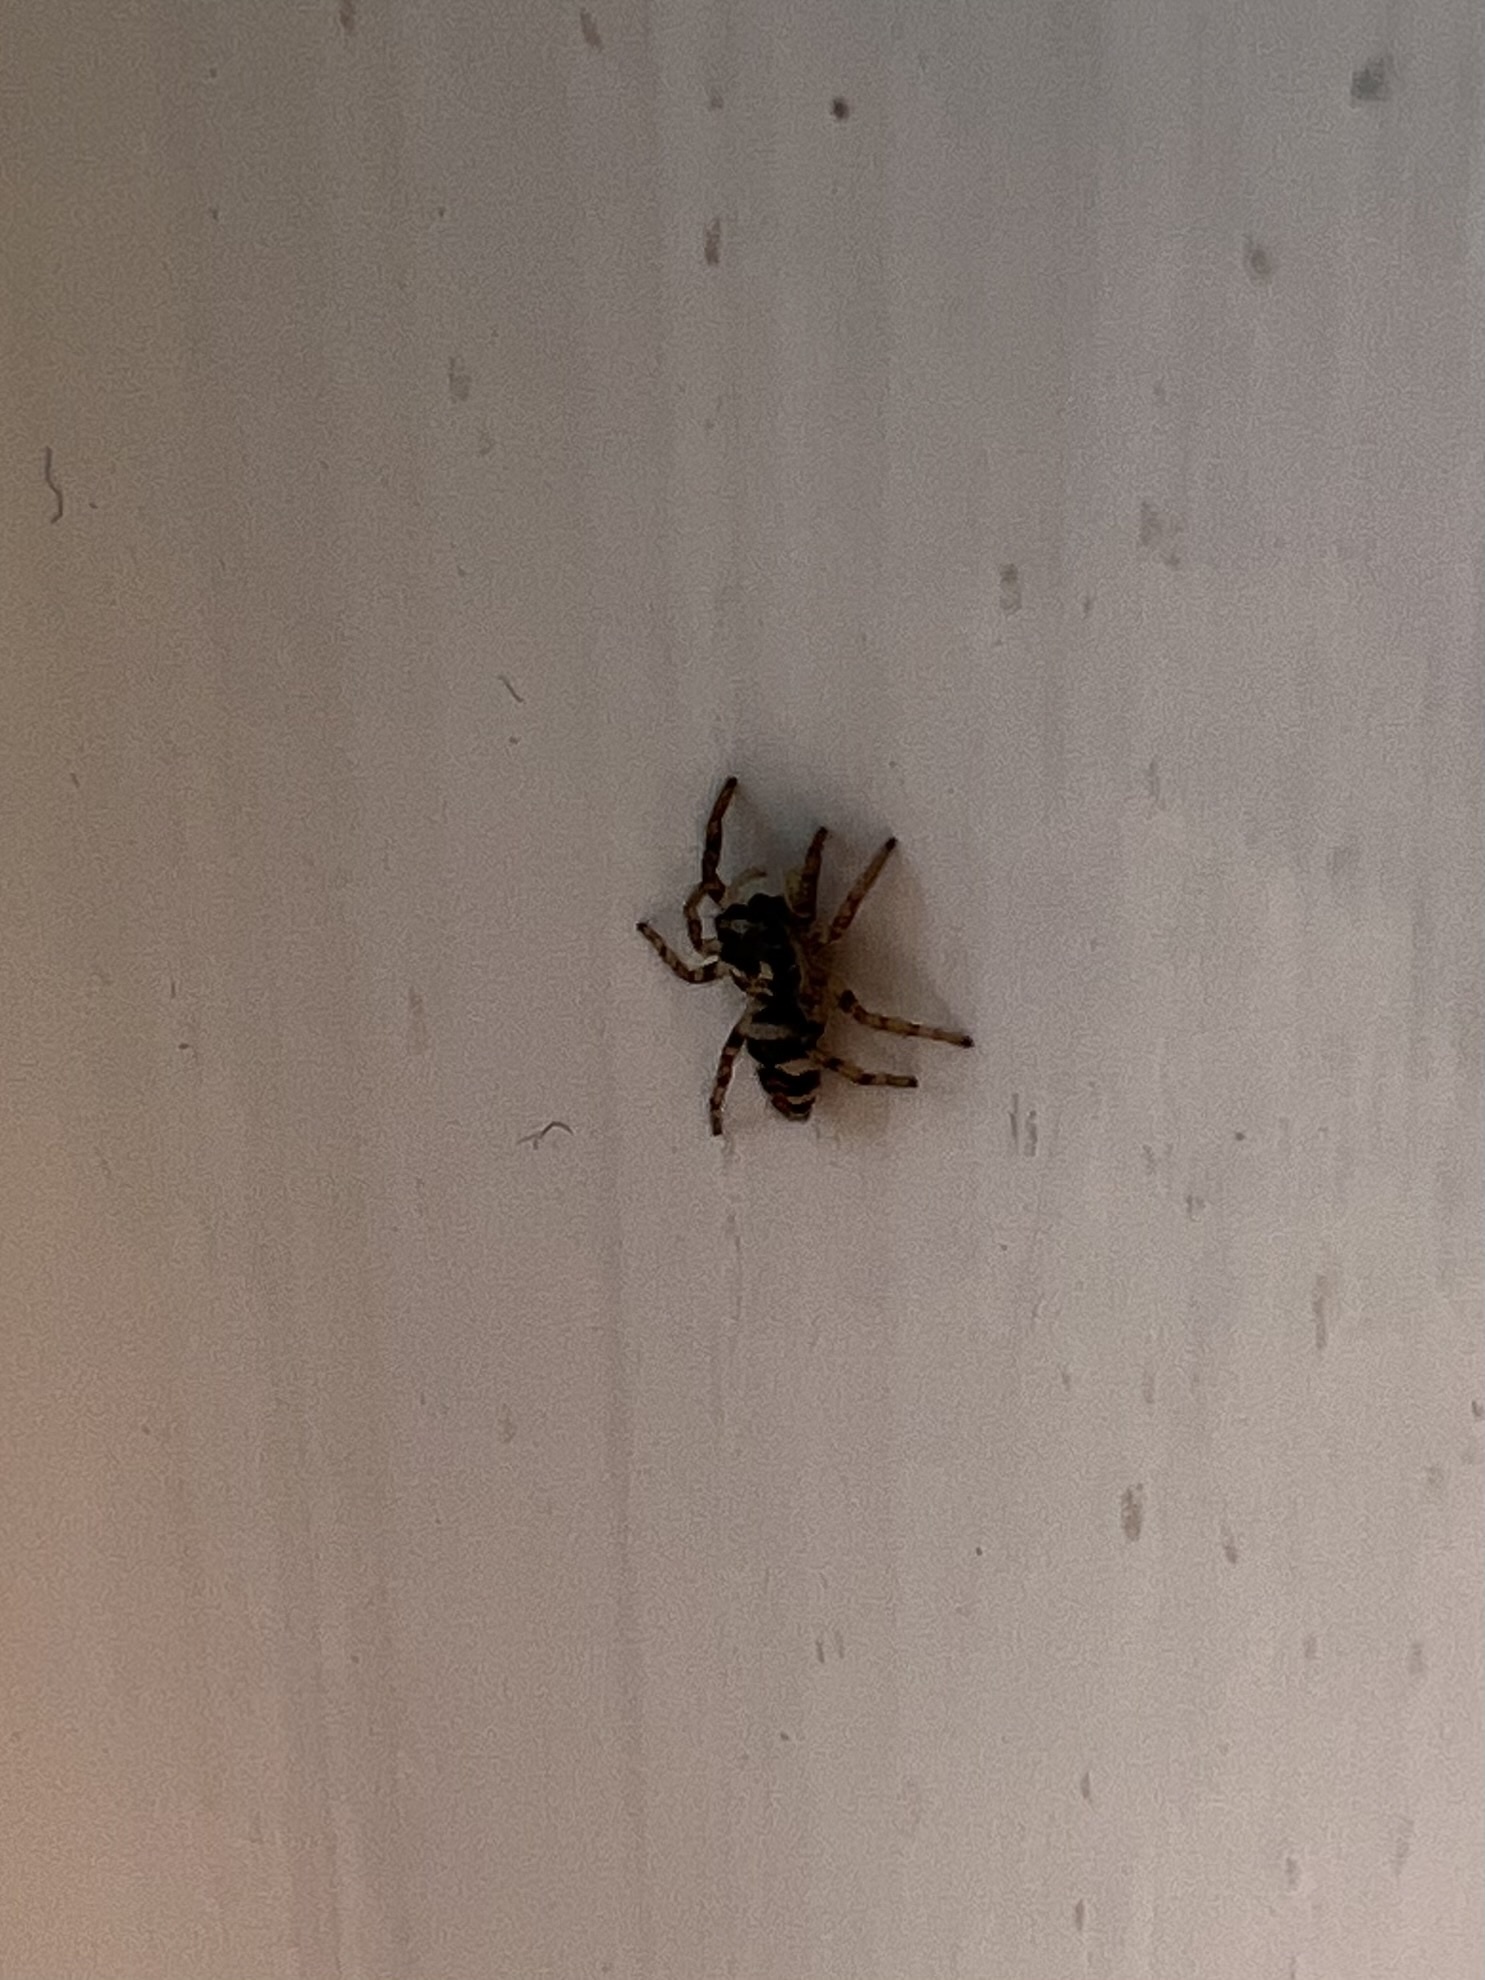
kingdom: Animalia
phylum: Arthropoda
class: Arachnida
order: Araneae
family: Salticidae
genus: Salticus
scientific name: Salticus scenicus
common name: Zebra jumper
